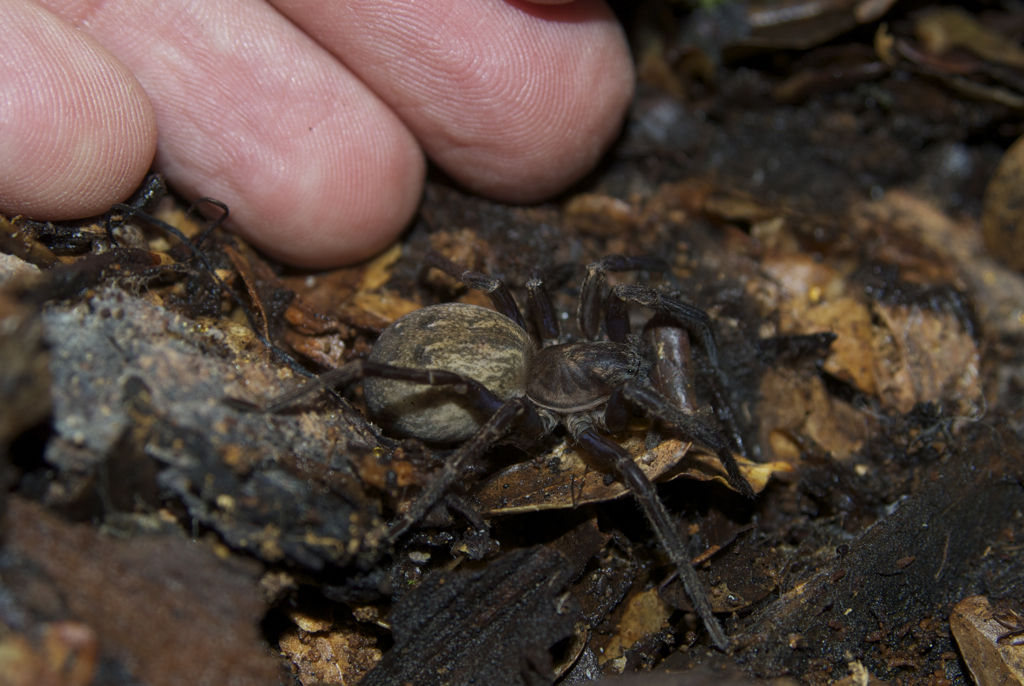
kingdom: Animalia
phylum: Arthropoda
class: Arachnida
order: Araneae
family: Zoropsidae
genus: Uliodon
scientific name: Uliodon
